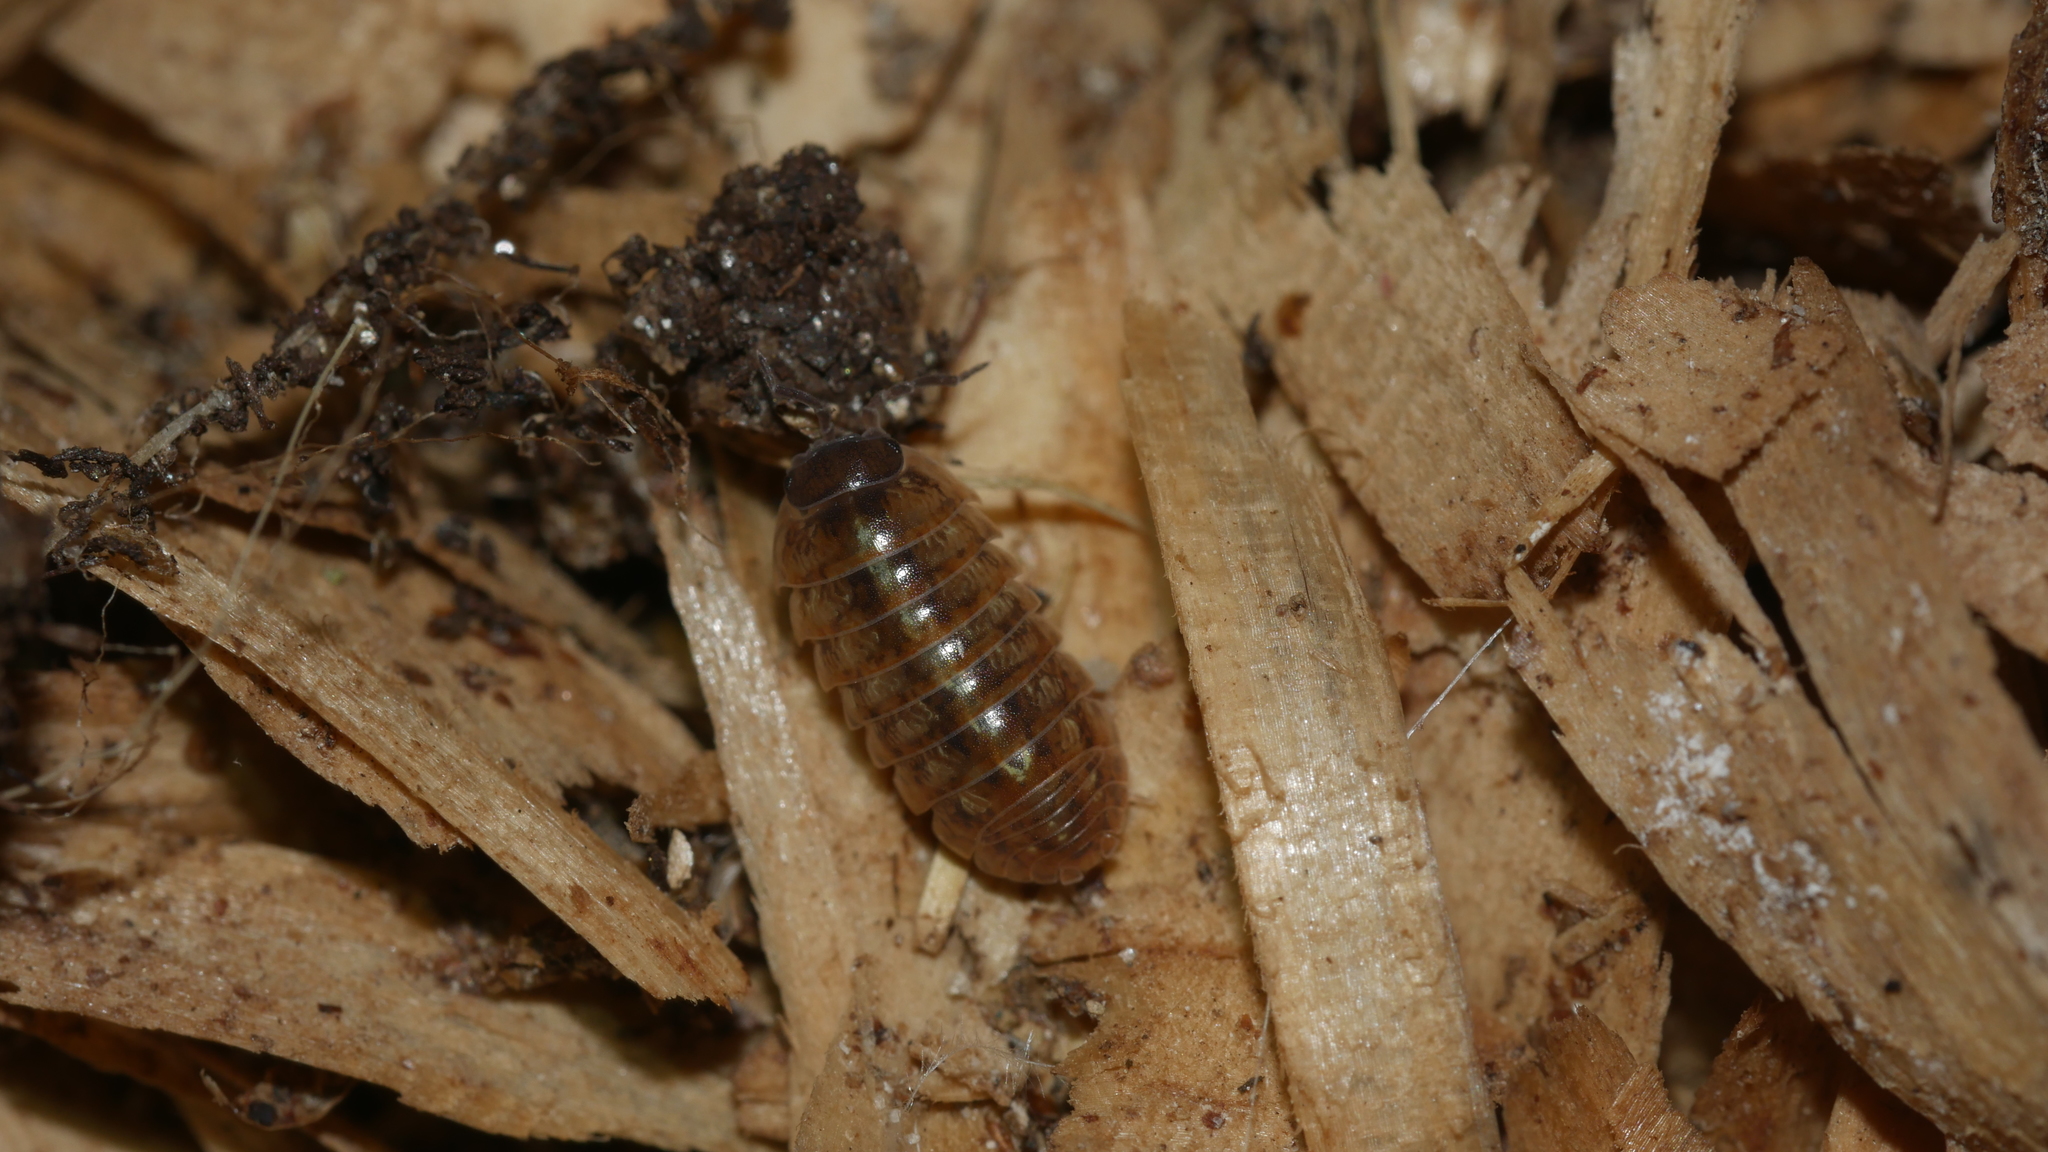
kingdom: Animalia
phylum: Arthropoda
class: Malacostraca
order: Isopoda
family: Armadillidiidae
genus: Armadillidium
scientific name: Armadillidium vulgare
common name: Common pill woodlouse
